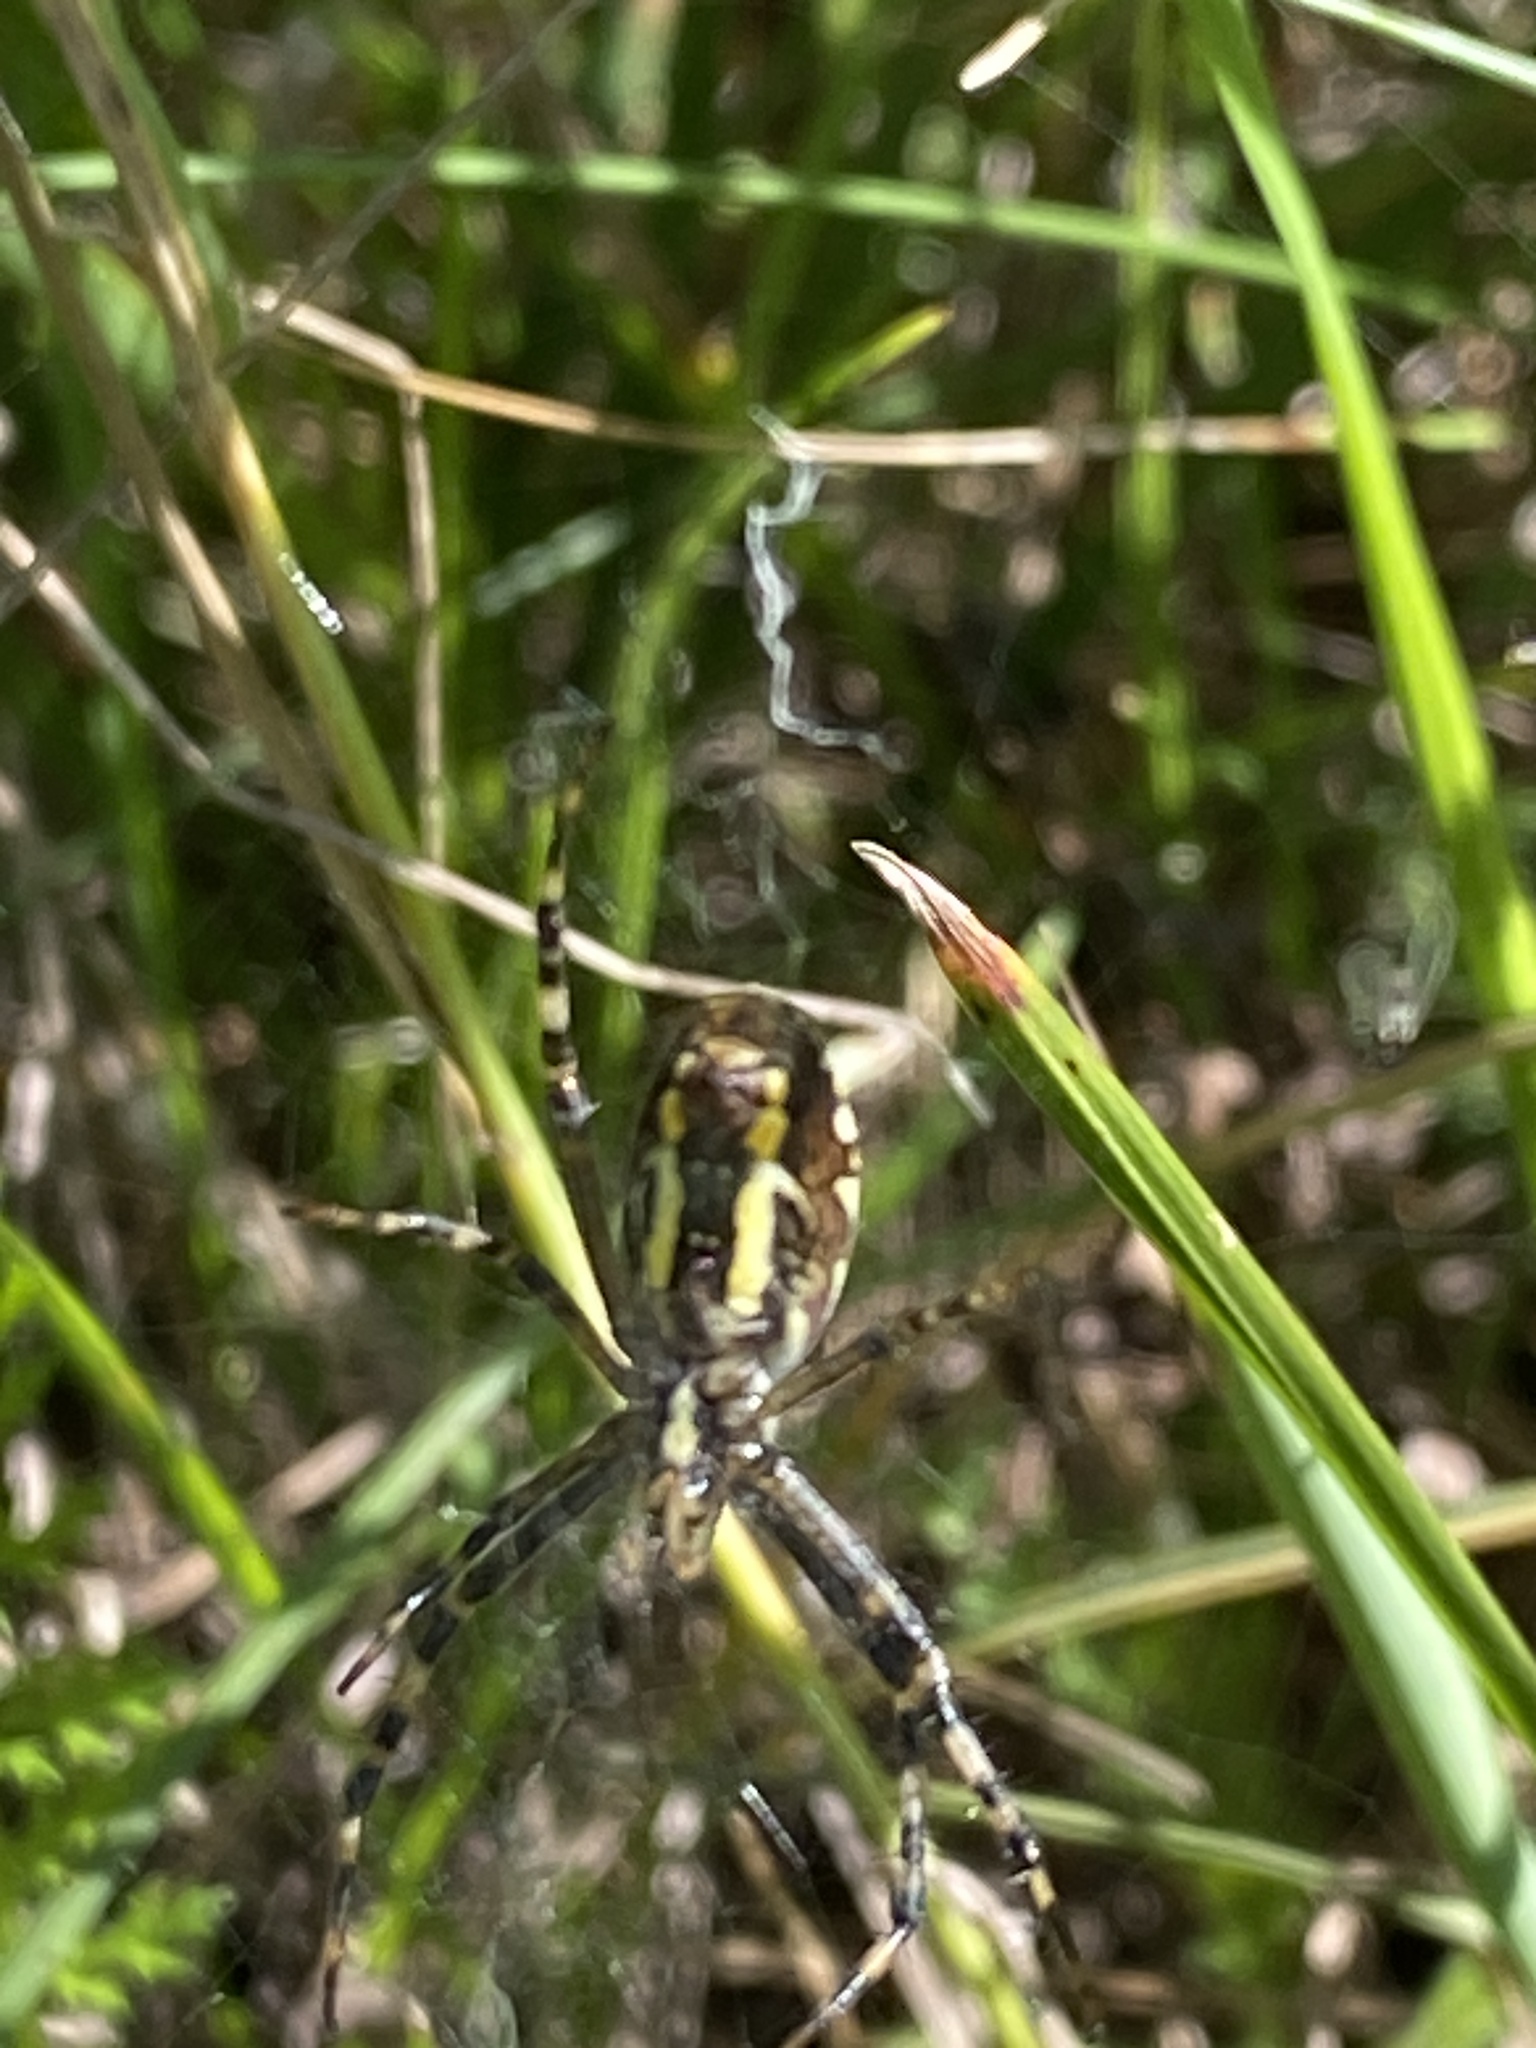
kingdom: Animalia
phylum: Arthropoda
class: Arachnida
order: Araneae
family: Araneidae
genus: Argiope
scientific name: Argiope bruennichi
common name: Wasp spider
